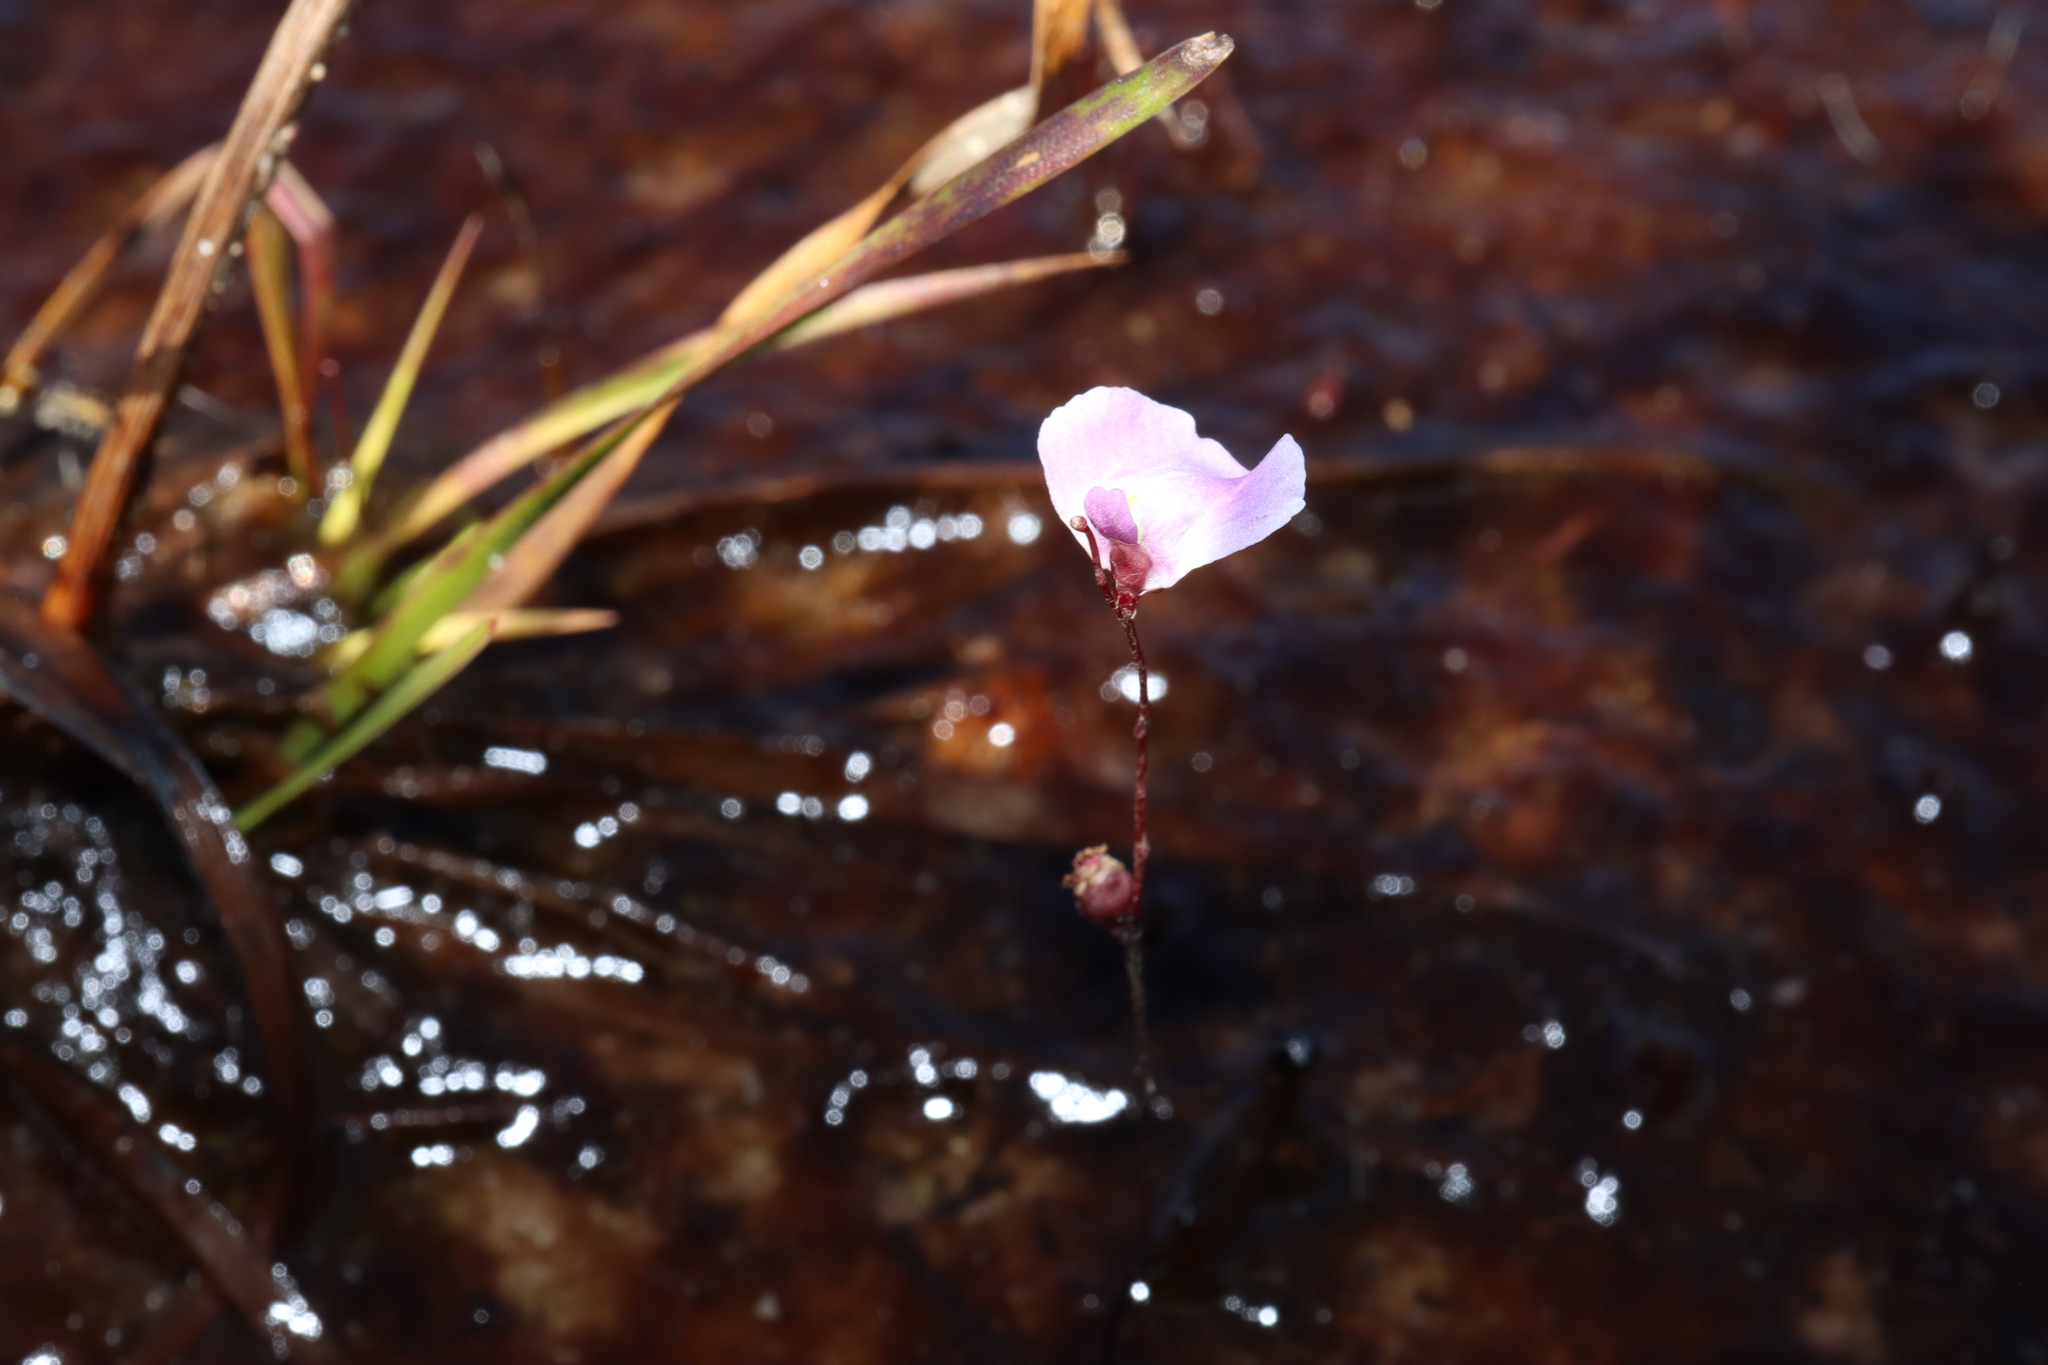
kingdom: Plantae
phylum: Tracheophyta
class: Magnoliopsida
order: Lamiales
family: Lentibulariaceae
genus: Utricularia
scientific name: Utricularia lateriflora
